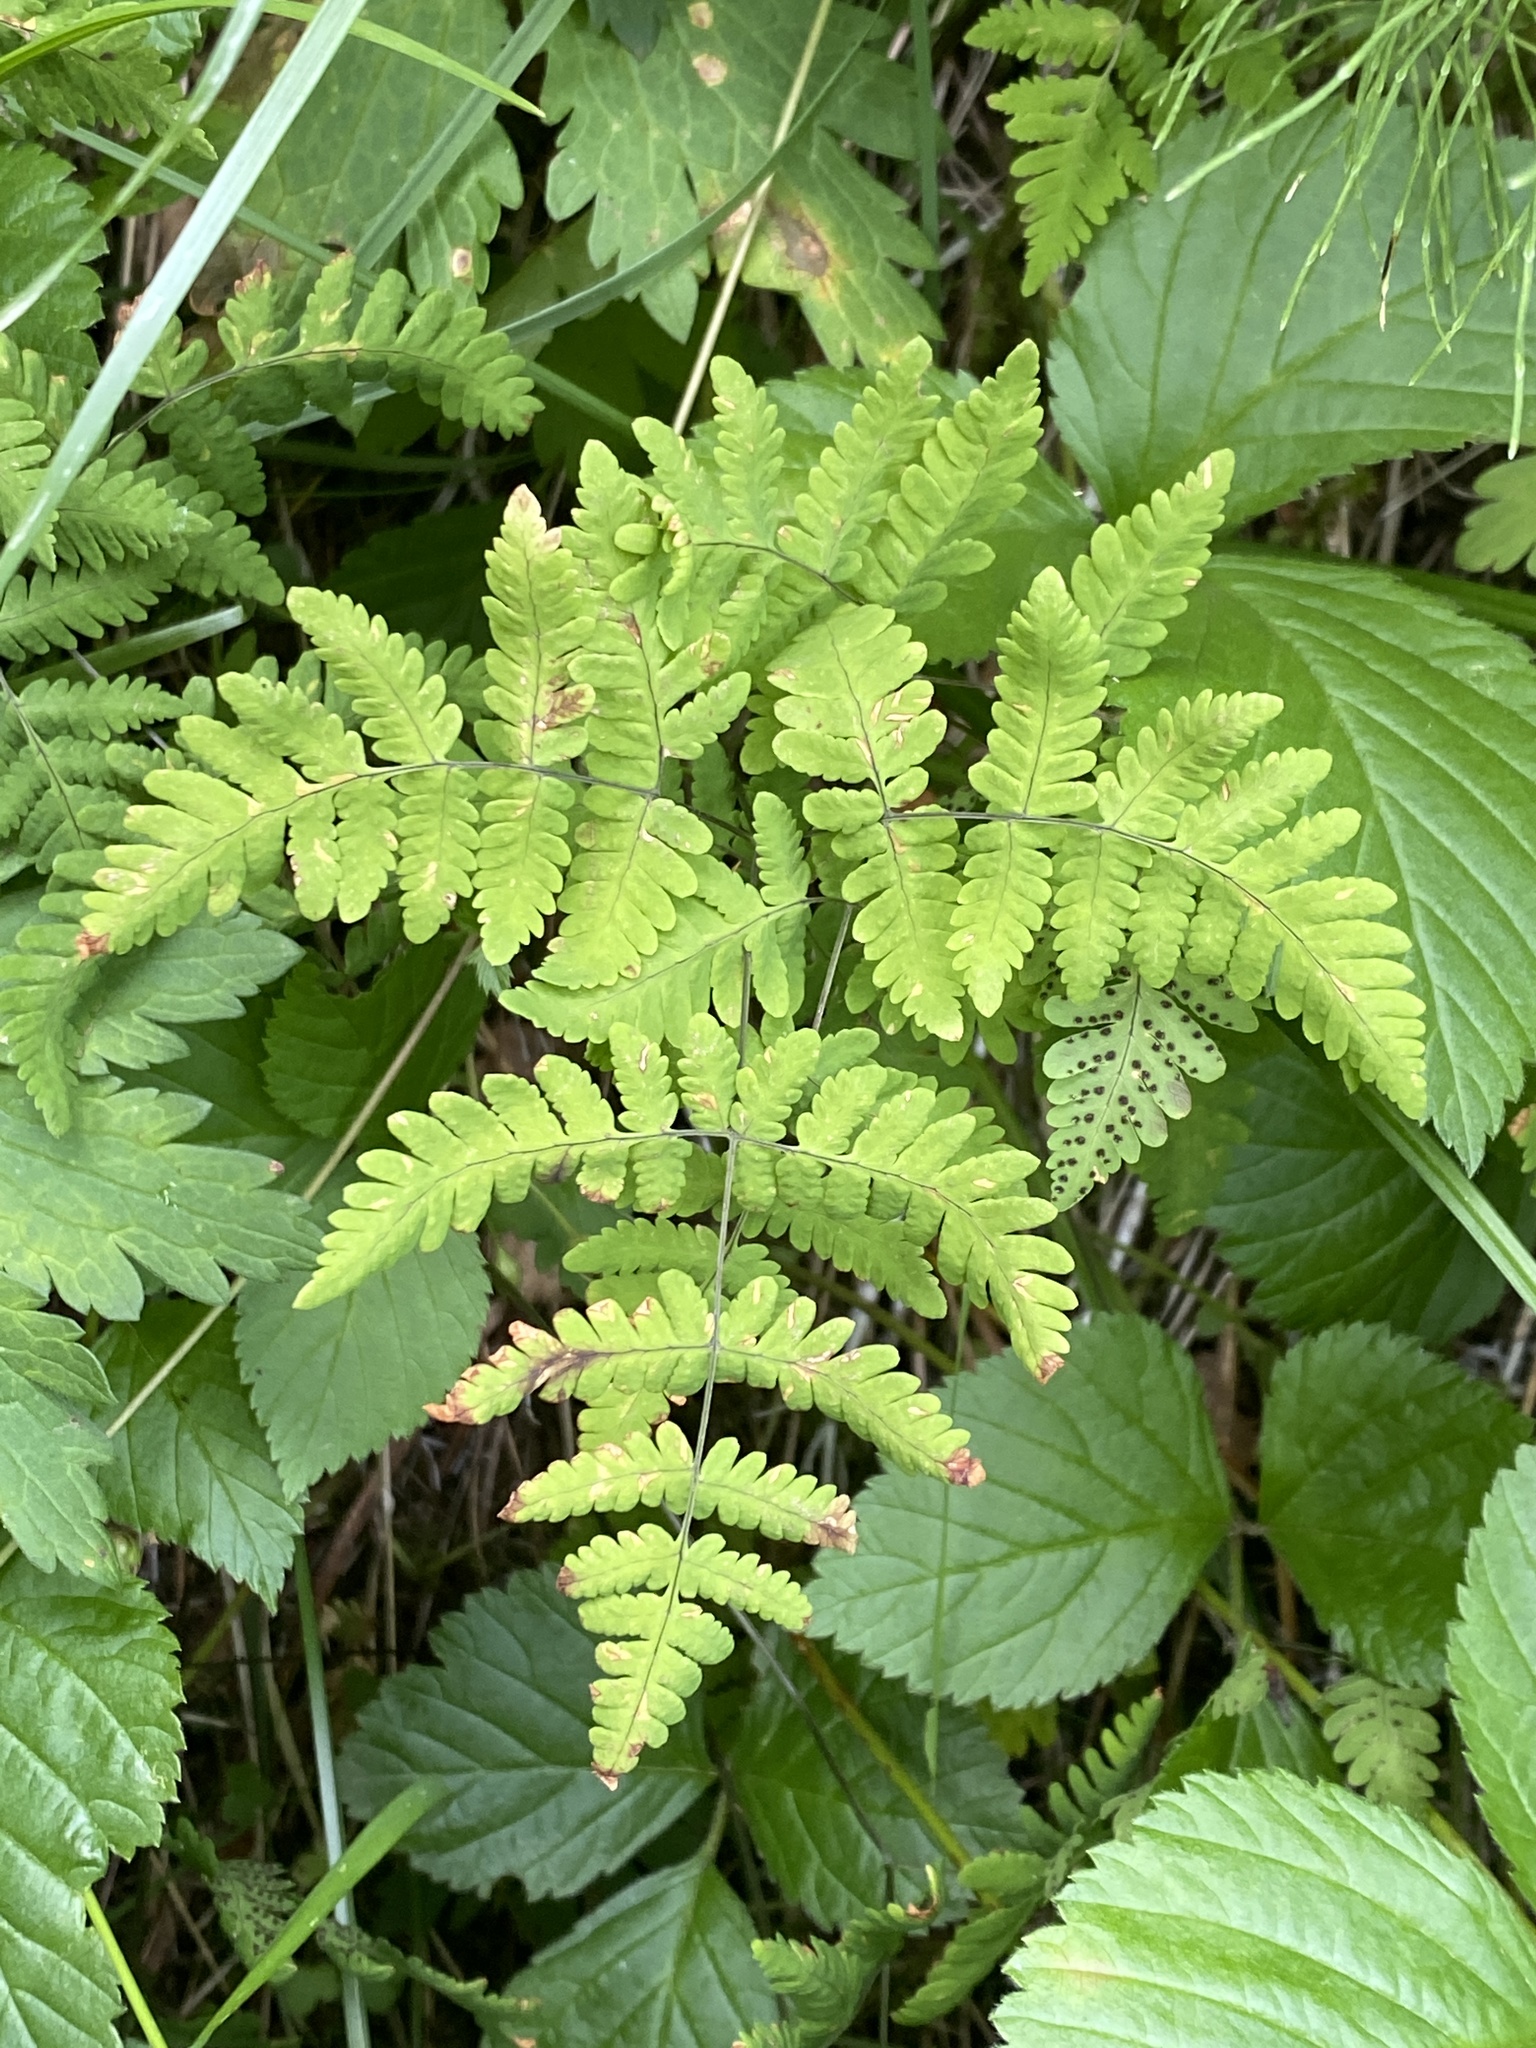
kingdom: Plantae
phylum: Tracheophyta
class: Polypodiopsida
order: Polypodiales
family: Cystopteridaceae
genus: Gymnocarpium
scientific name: Gymnocarpium dryopteris
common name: Oak fern
